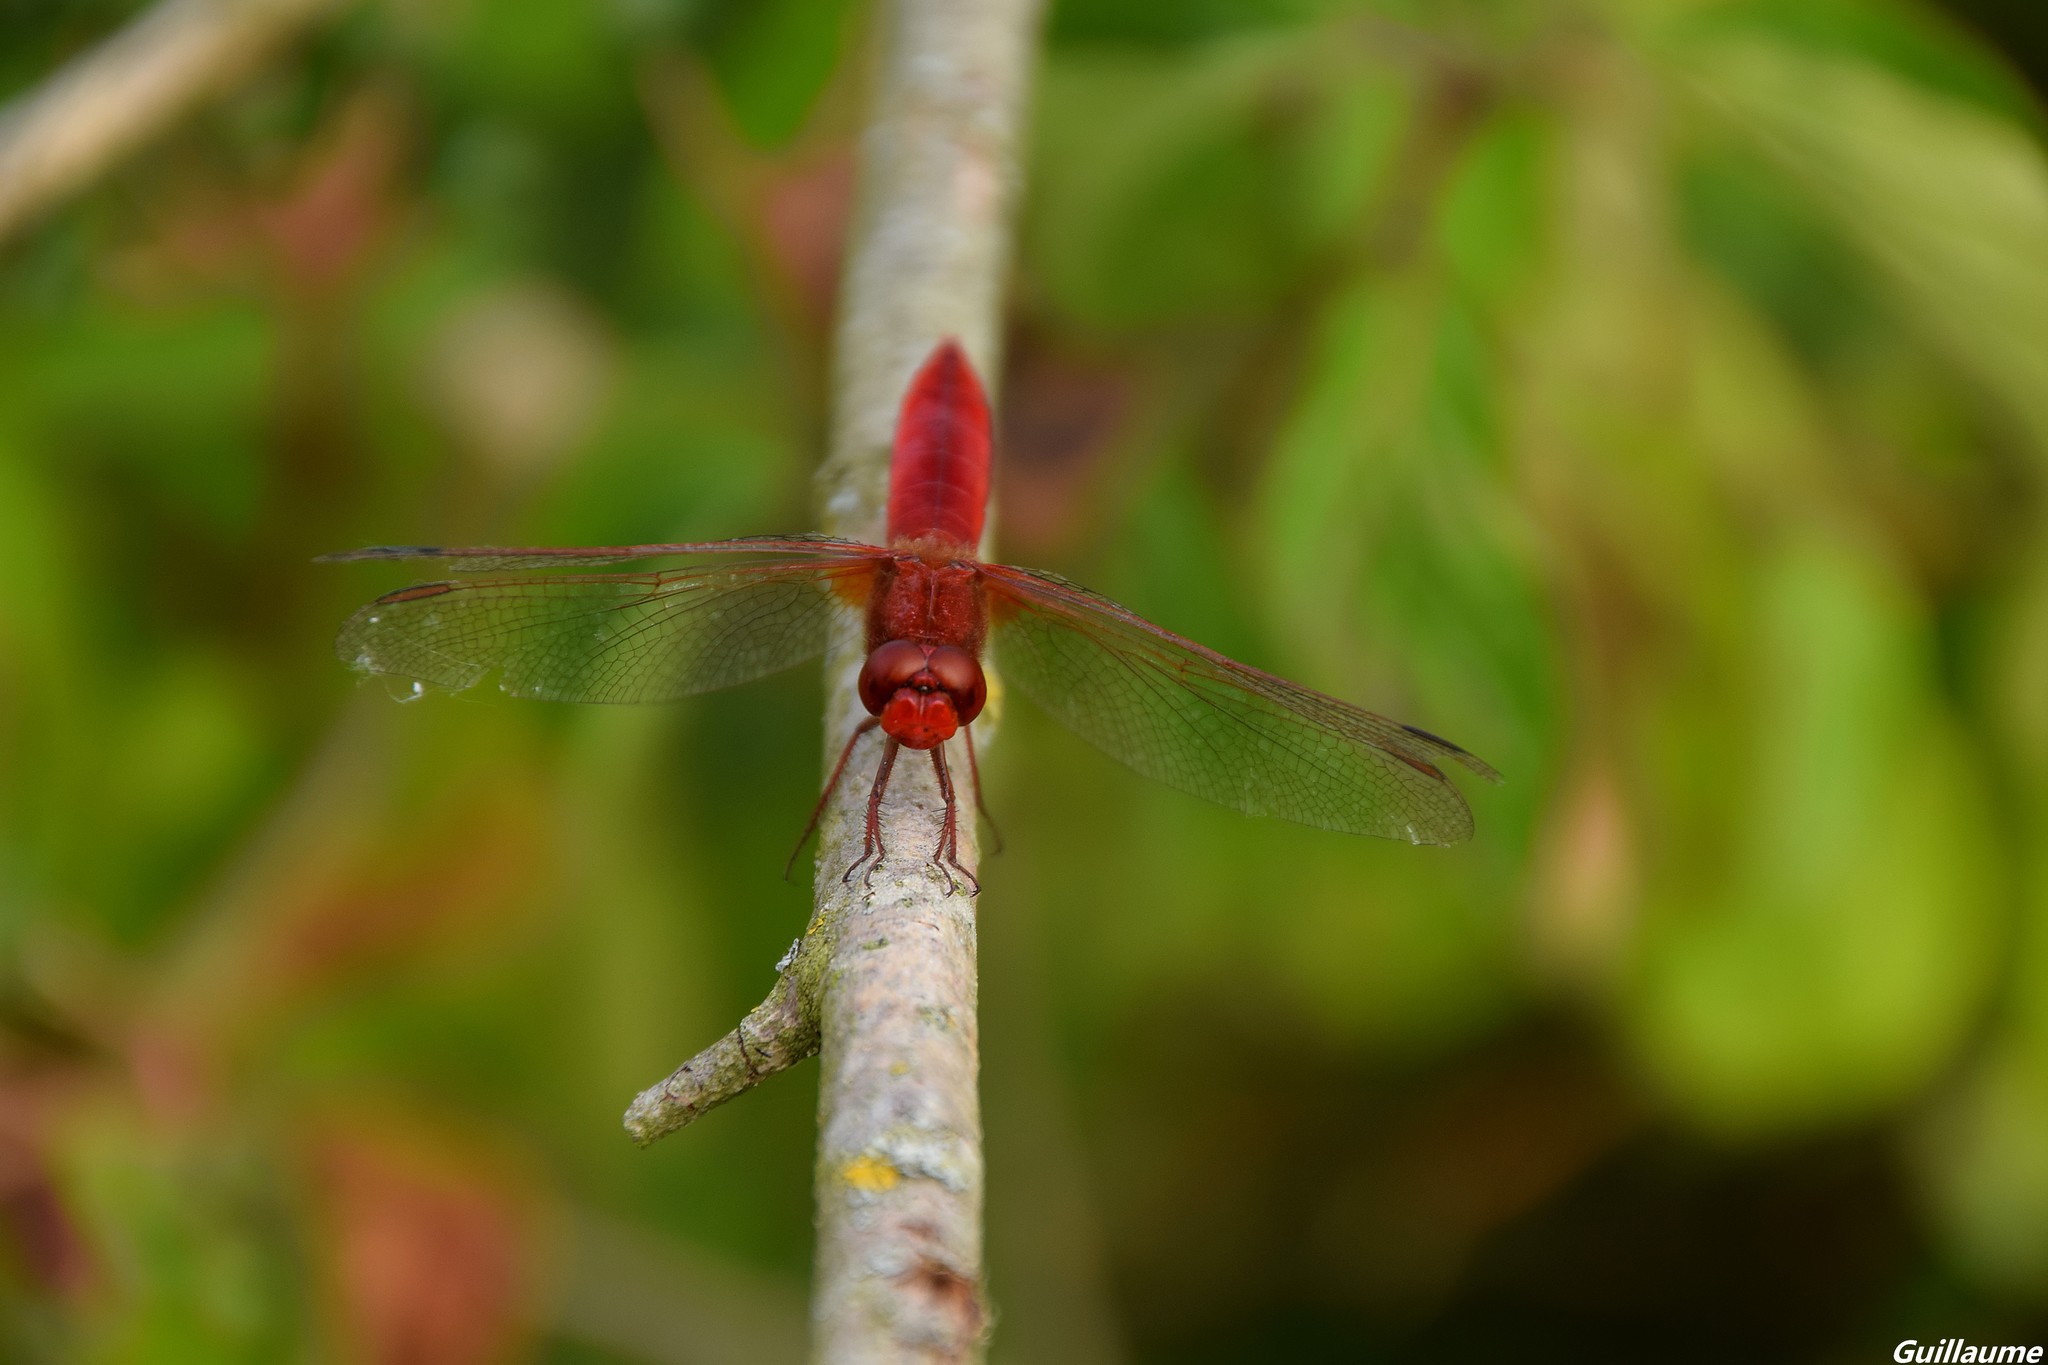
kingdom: Animalia
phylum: Arthropoda
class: Insecta
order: Odonata
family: Libellulidae
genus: Crocothemis
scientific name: Crocothemis erythraea
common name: Scarlet dragonfly
